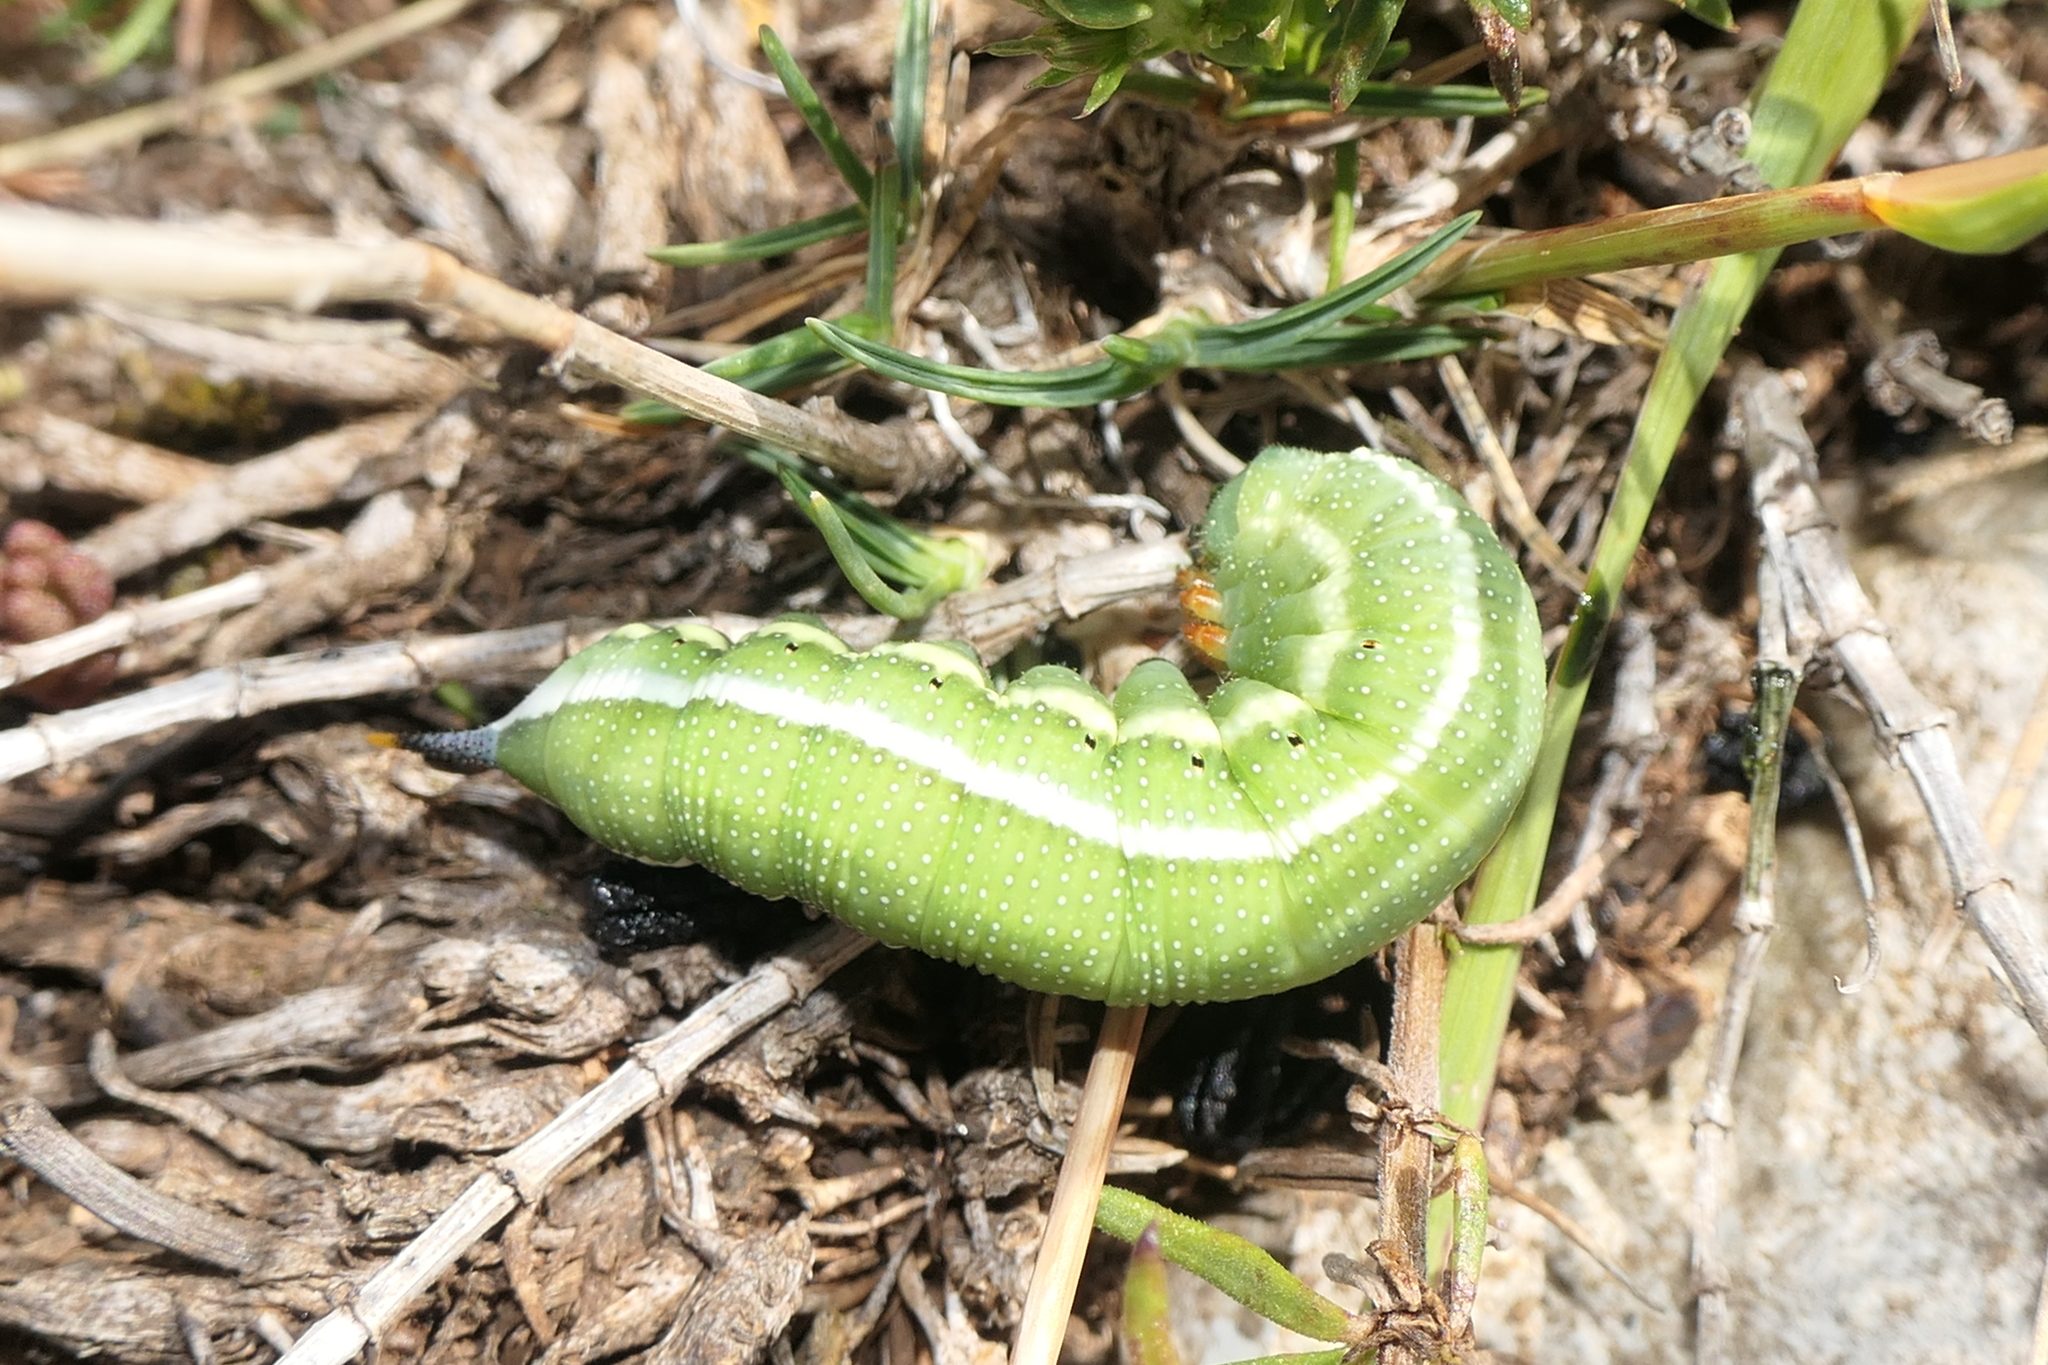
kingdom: Animalia
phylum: Arthropoda
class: Insecta
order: Lepidoptera
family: Sphingidae
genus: Macroglossum
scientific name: Macroglossum stellatarum
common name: Humming-bird hawk-moth
